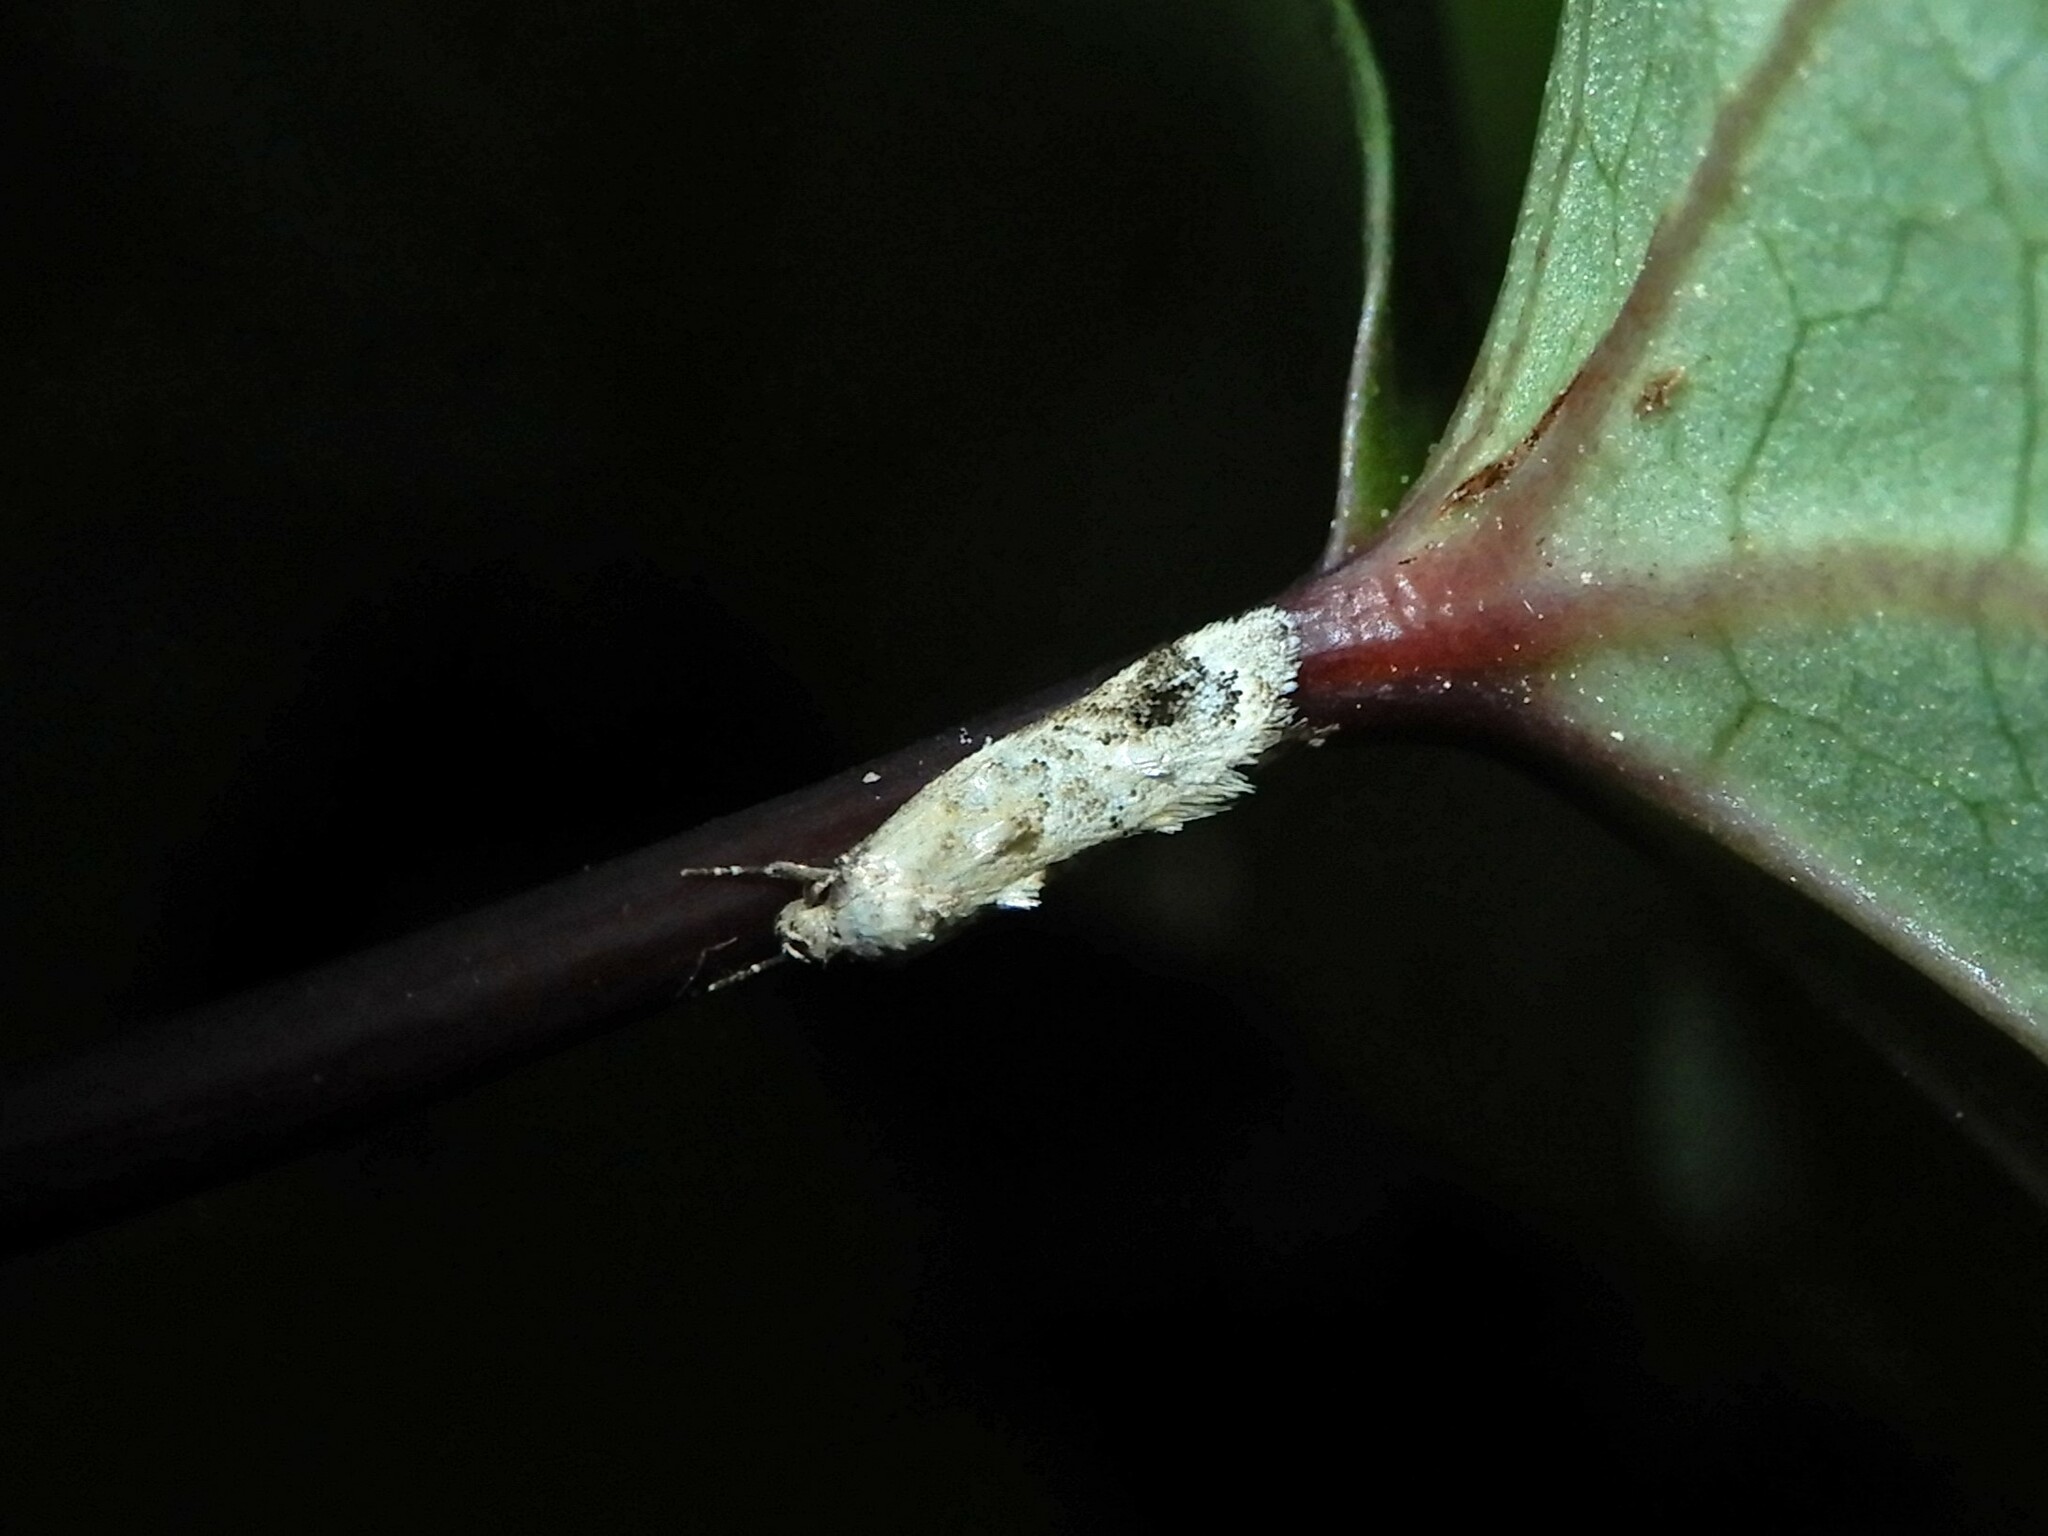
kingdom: Animalia
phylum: Arthropoda
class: Insecta
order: Lepidoptera
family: Oecophoridae
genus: Trachypepla
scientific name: Trachypepla aspidephora
